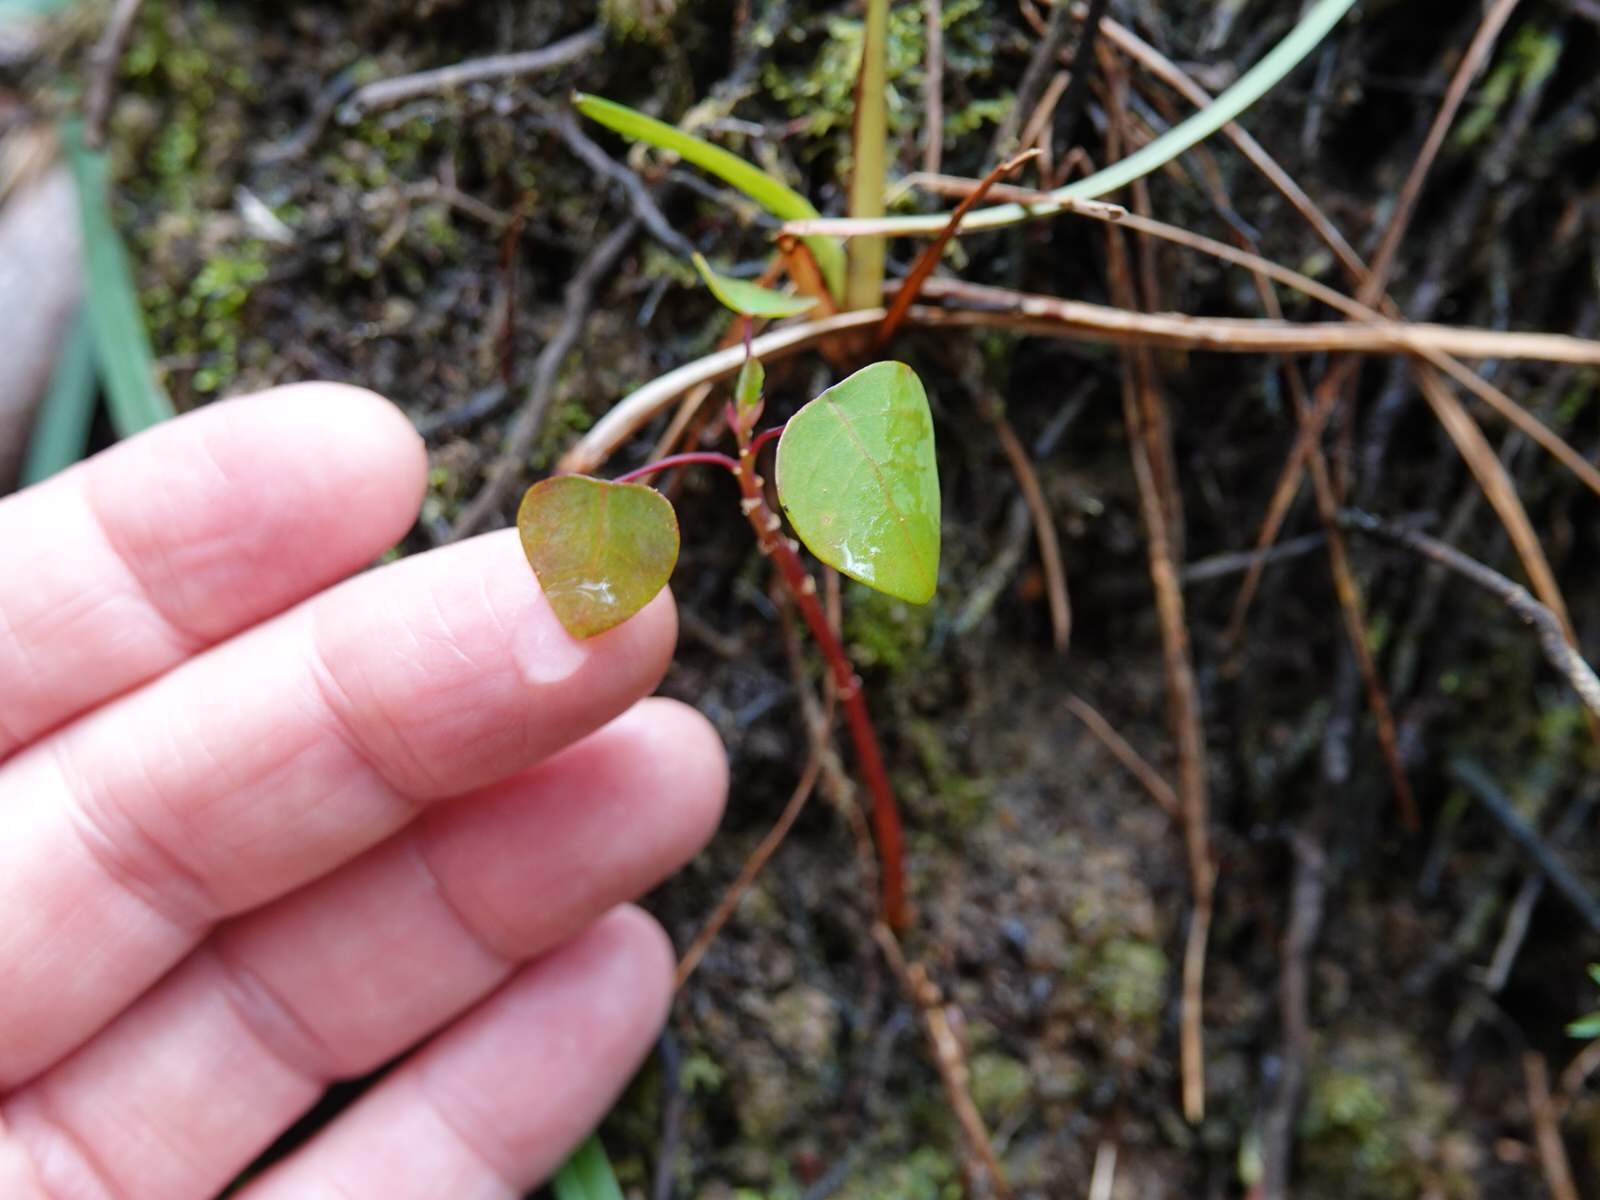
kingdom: Plantae
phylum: Tracheophyta
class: Magnoliopsida
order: Malpighiales
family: Euphorbiaceae
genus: Homalanthus
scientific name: Homalanthus populifolius
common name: Queensland poplar
